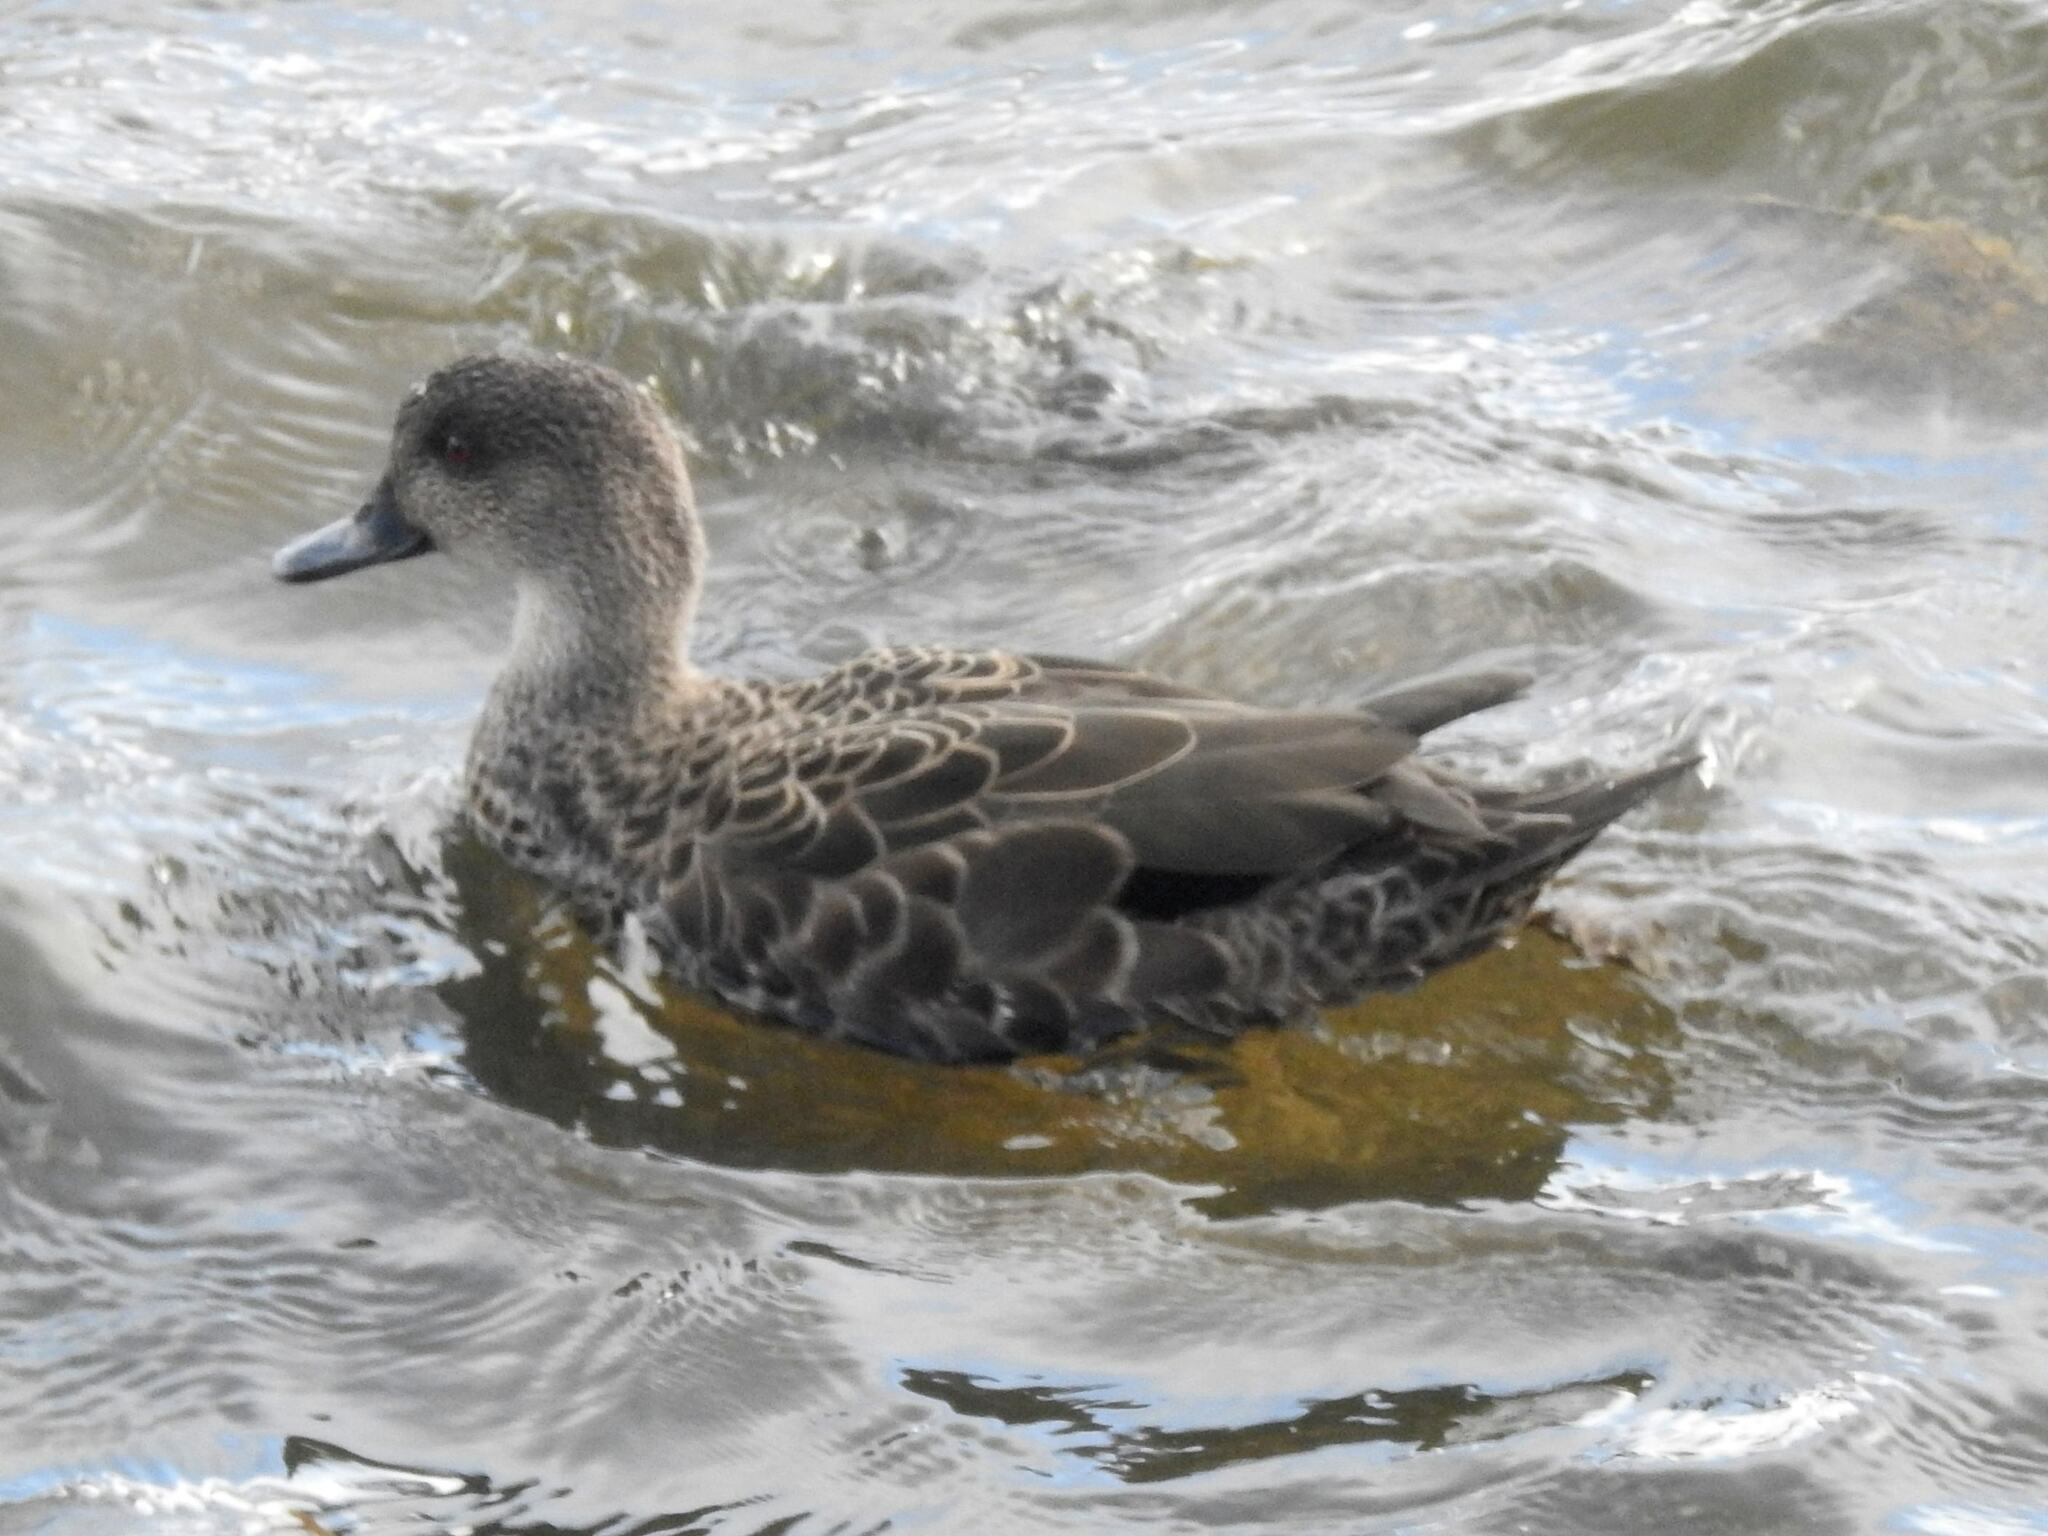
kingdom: Animalia
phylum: Chordata
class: Aves
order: Anseriformes
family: Anatidae
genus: Anas
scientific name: Anas castanea
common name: Chestnut teal
